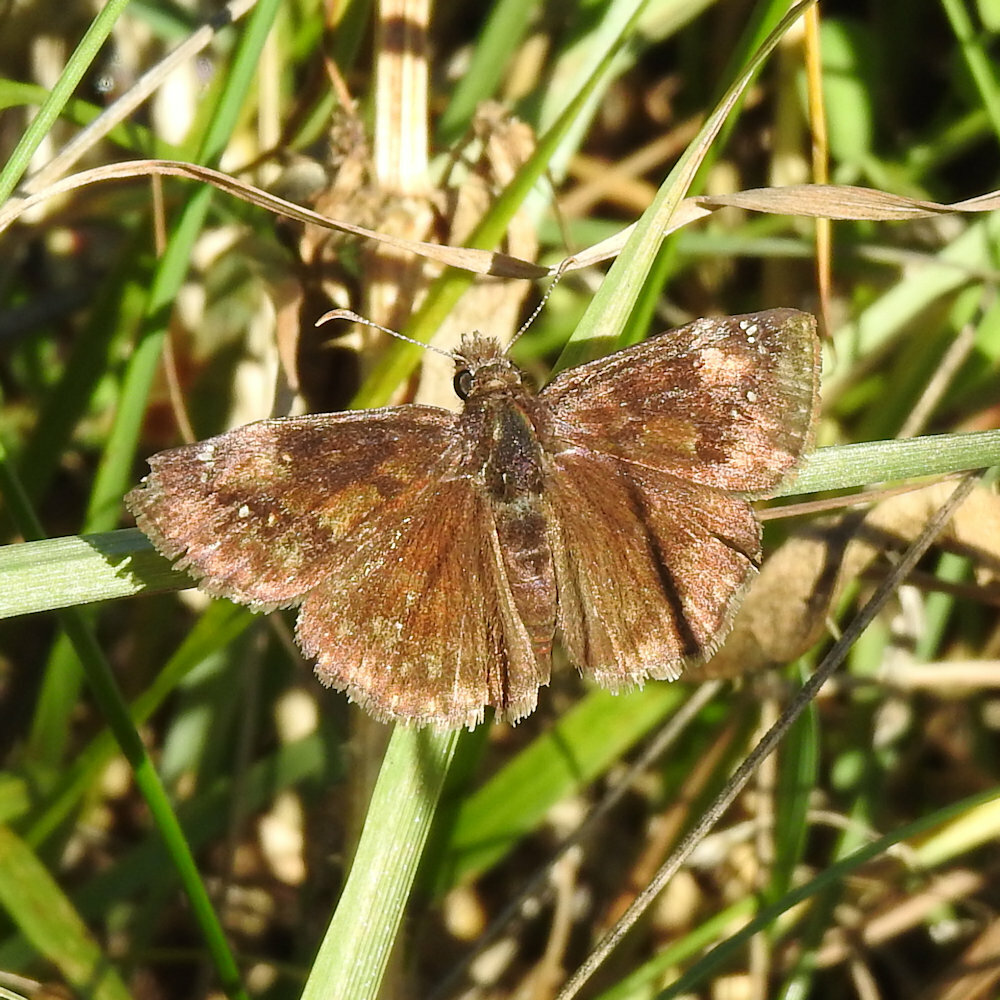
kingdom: Animalia
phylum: Arthropoda
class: Insecta
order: Lepidoptera
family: Hesperiidae
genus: Erynnis
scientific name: Erynnis baptisiae
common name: Wild indigo duskywing
